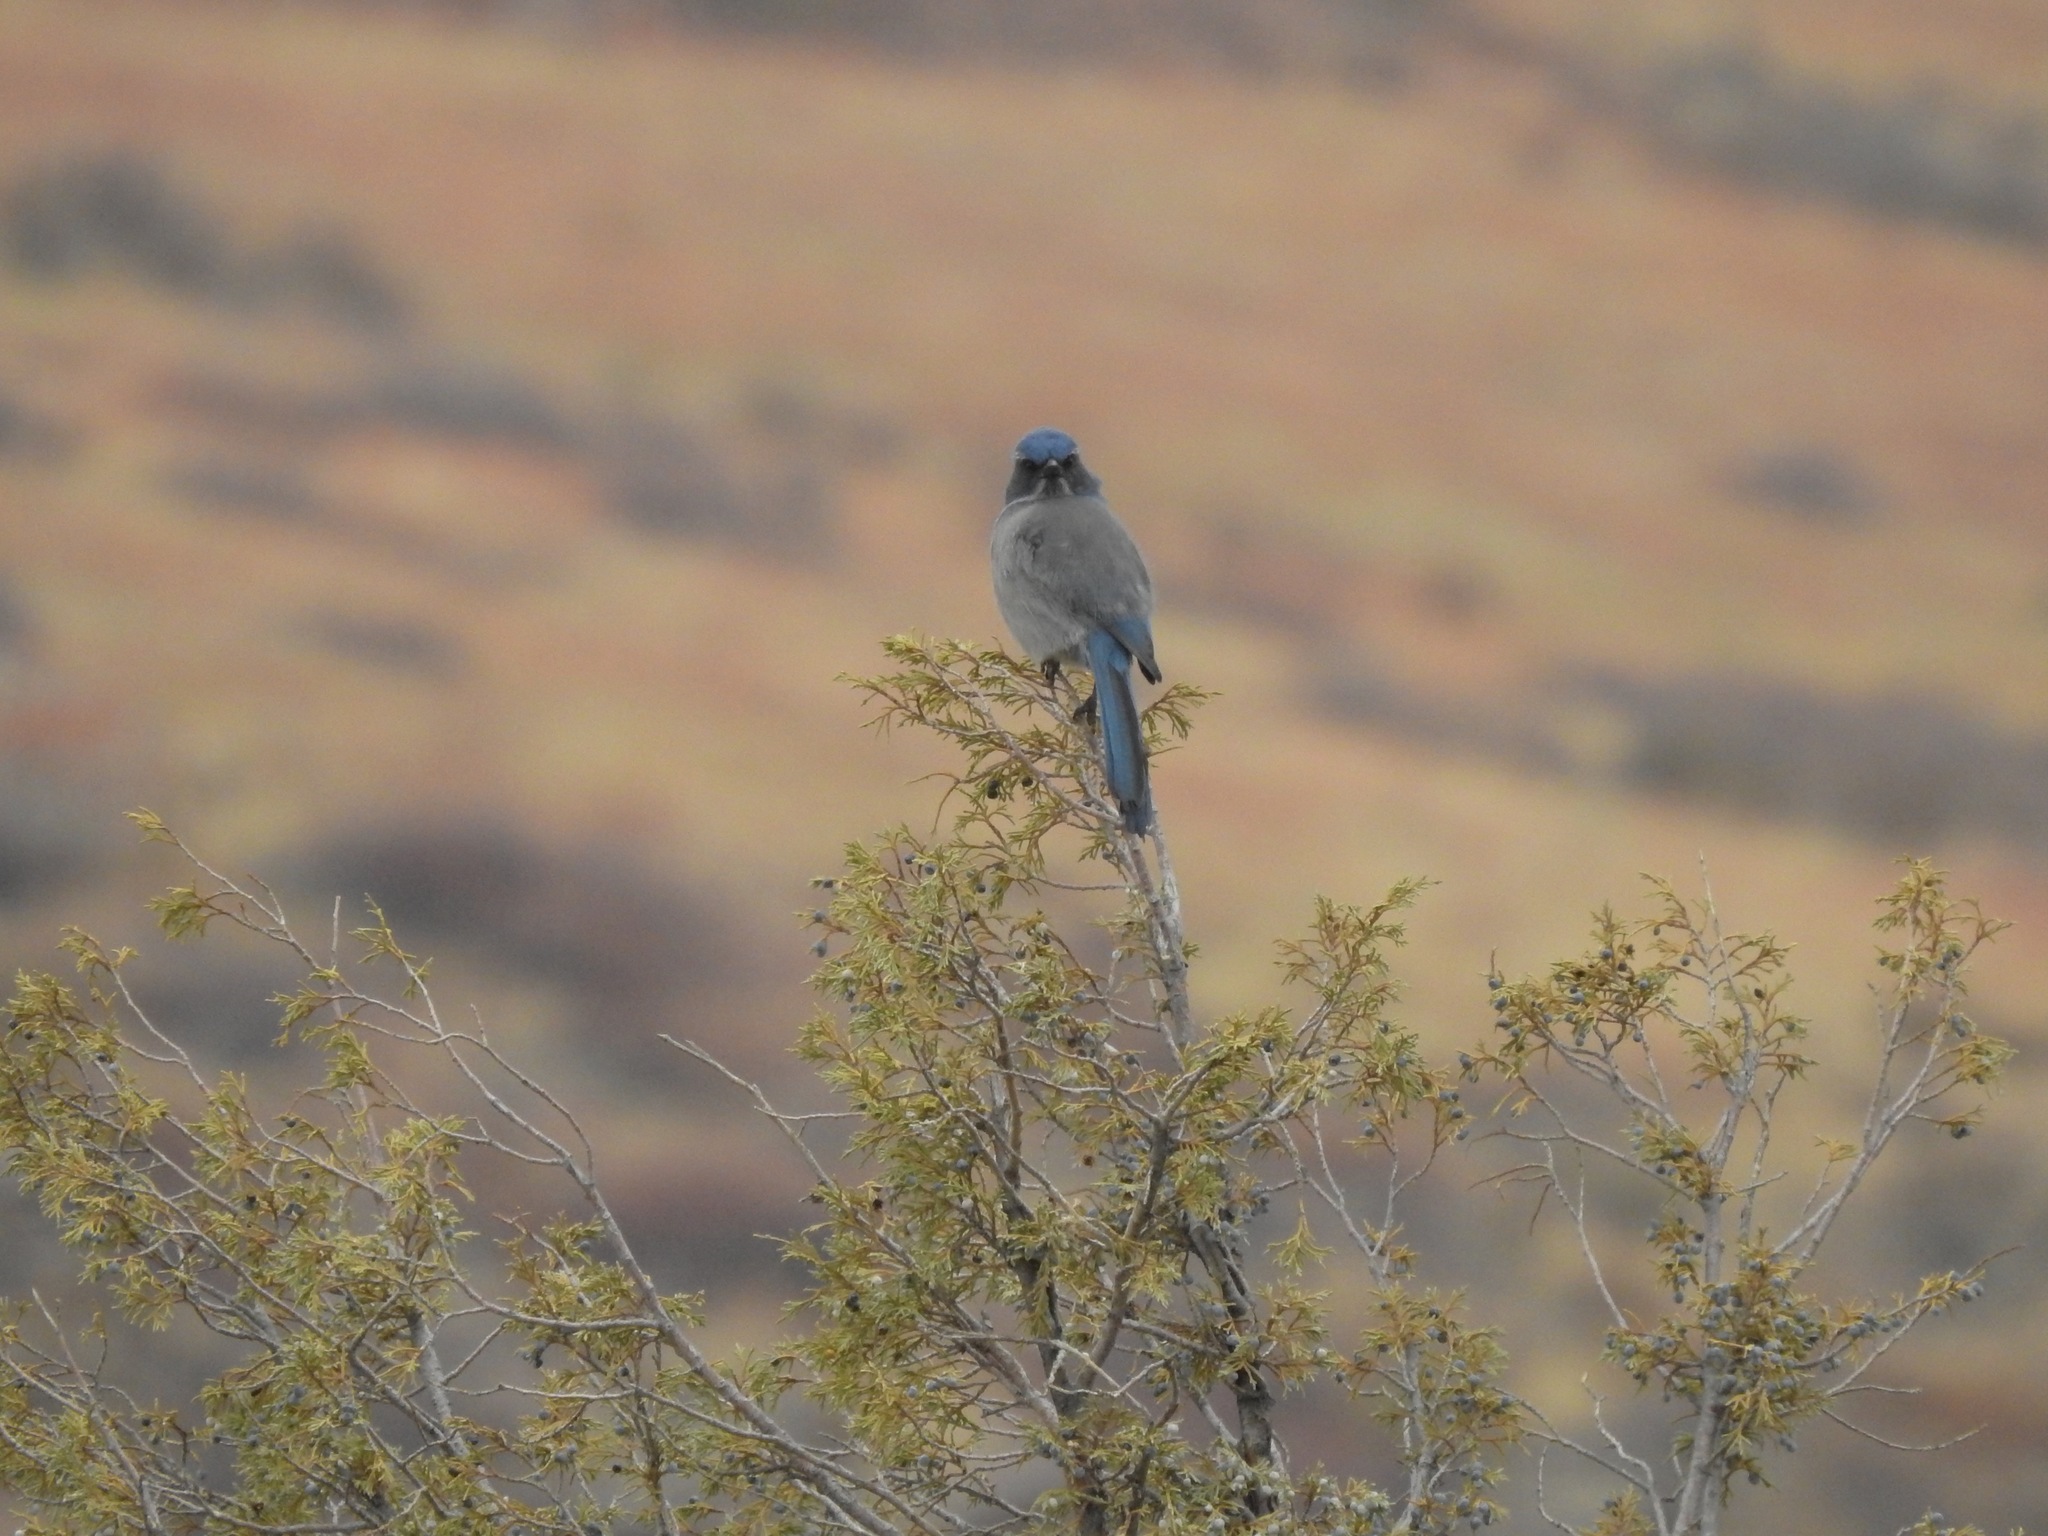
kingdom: Animalia
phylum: Chordata
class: Aves
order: Passeriformes
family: Corvidae
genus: Aphelocoma
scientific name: Aphelocoma woodhouseii
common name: Woodhouse's scrub-jay
